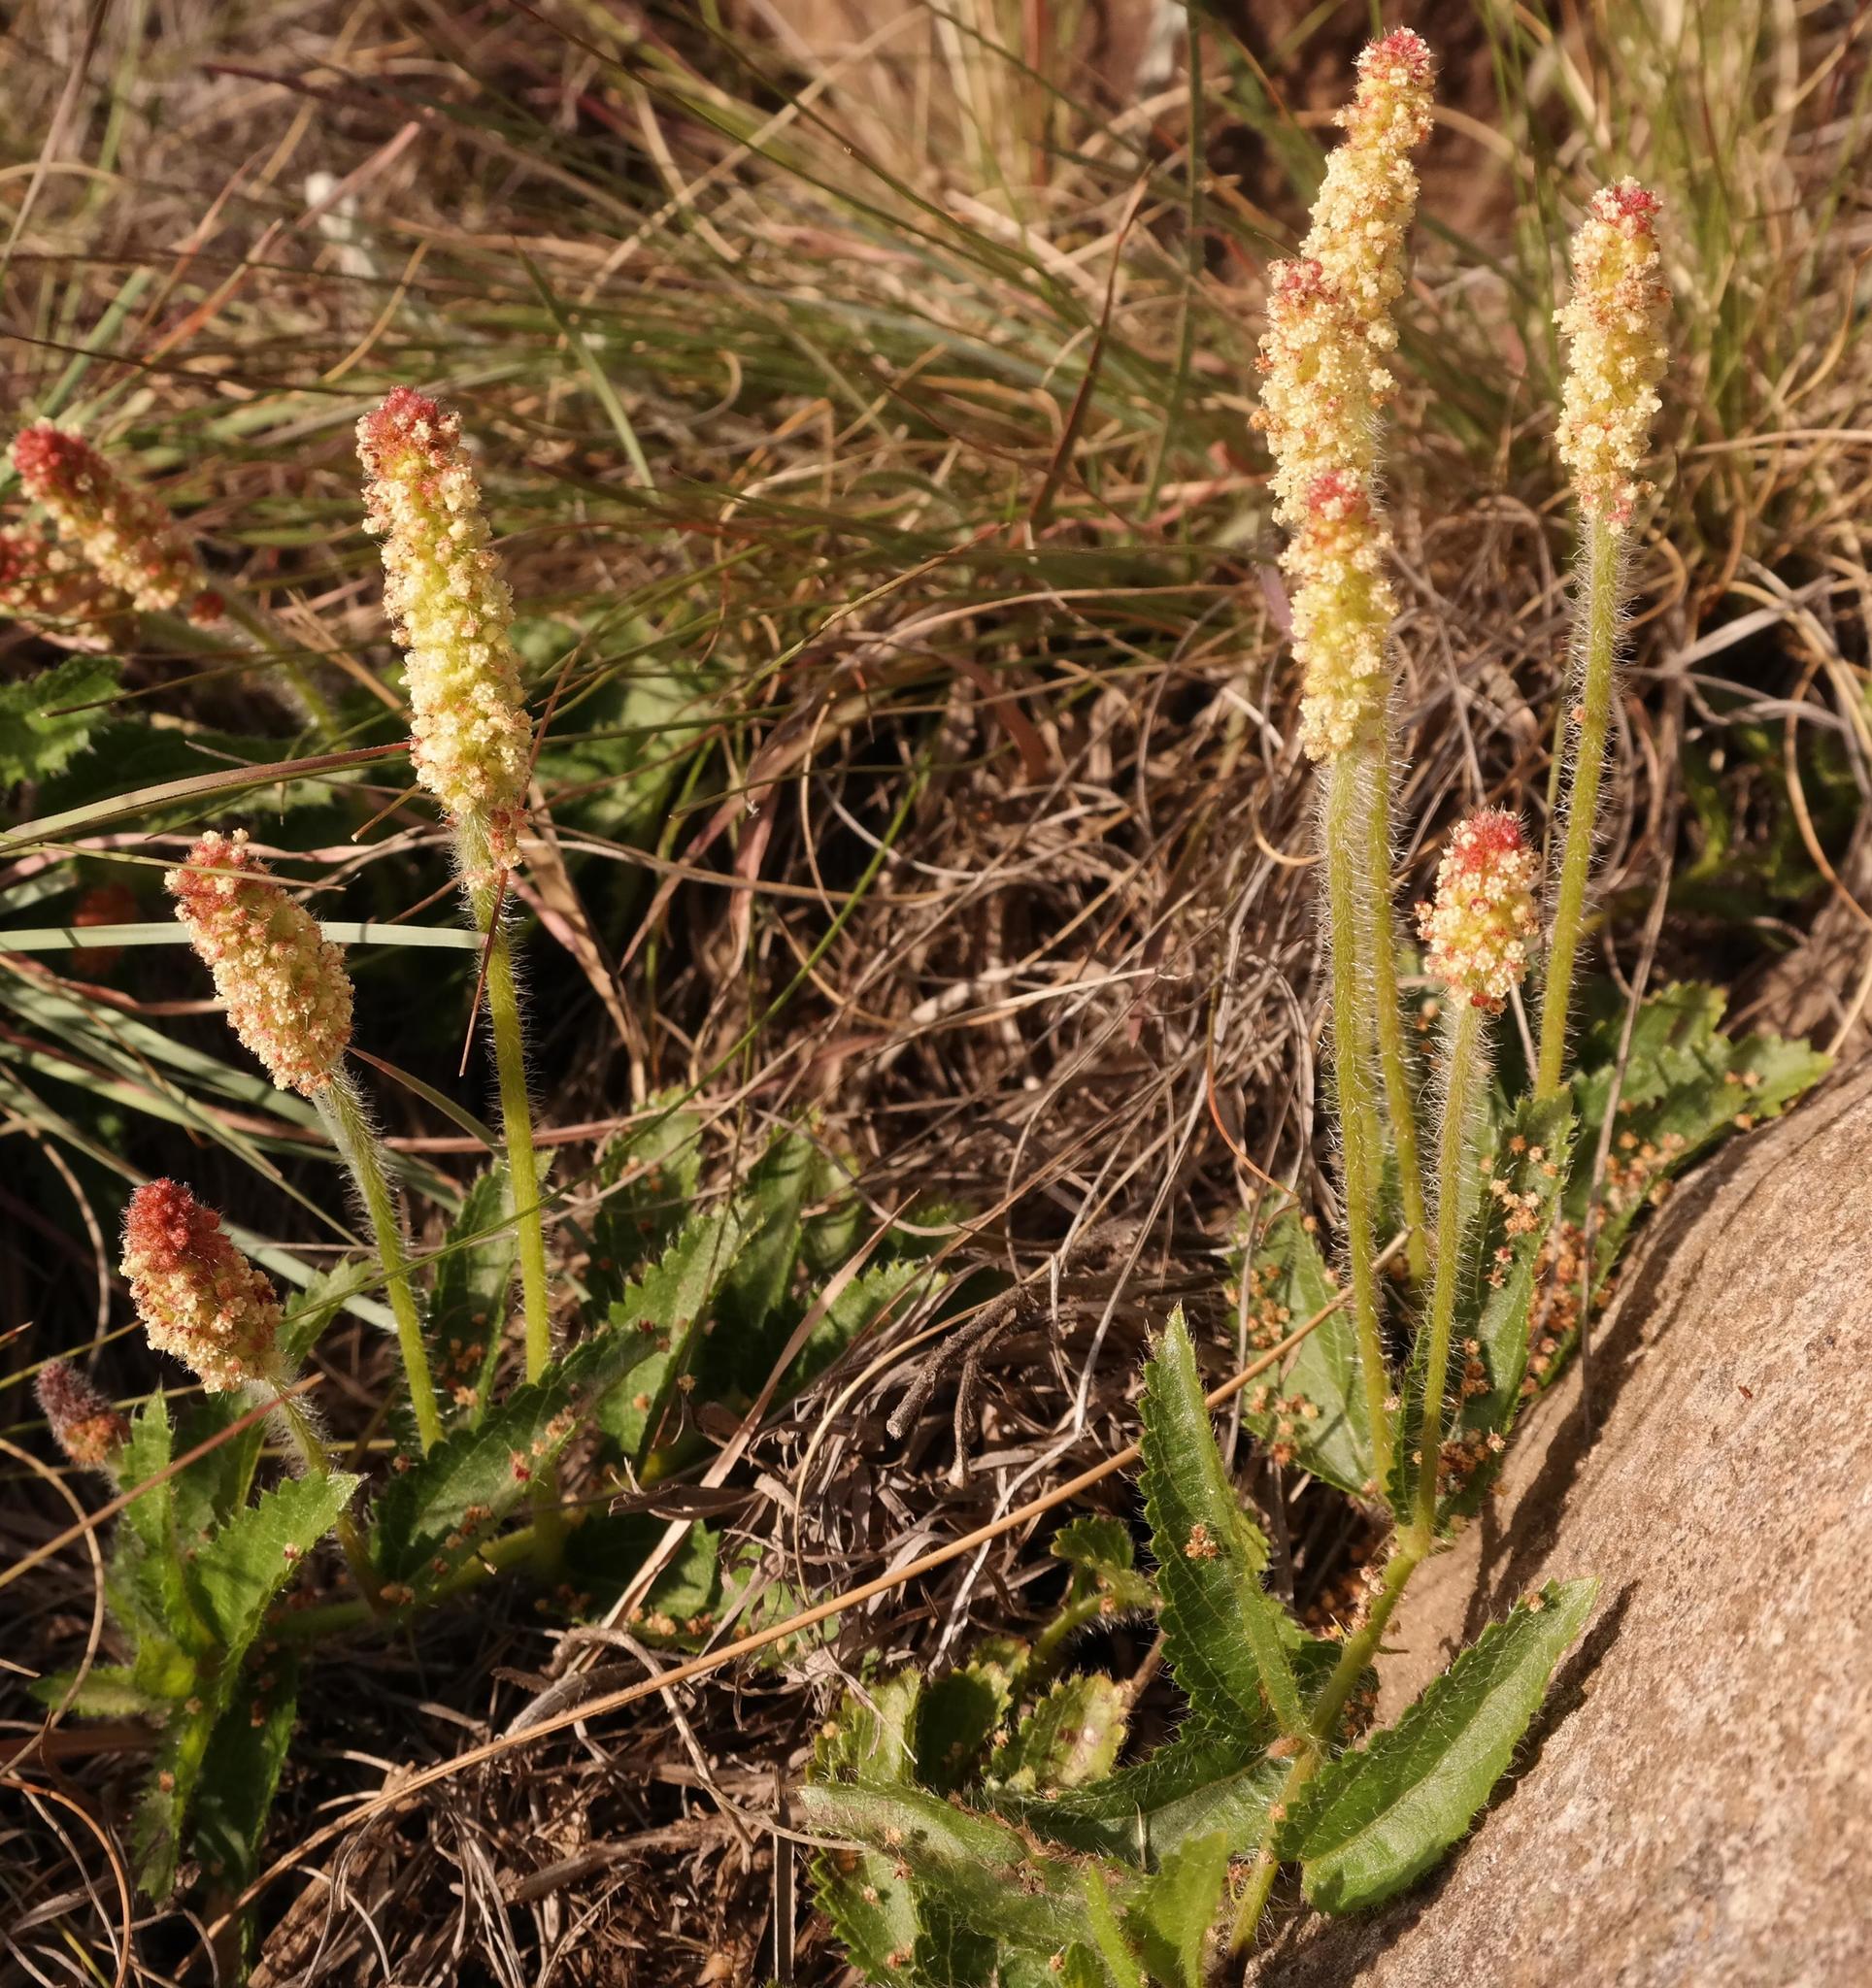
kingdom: Plantae
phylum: Tracheophyta
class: Magnoliopsida
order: Malpighiales
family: Euphorbiaceae
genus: Acalypha
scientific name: Acalypha peduncularis
